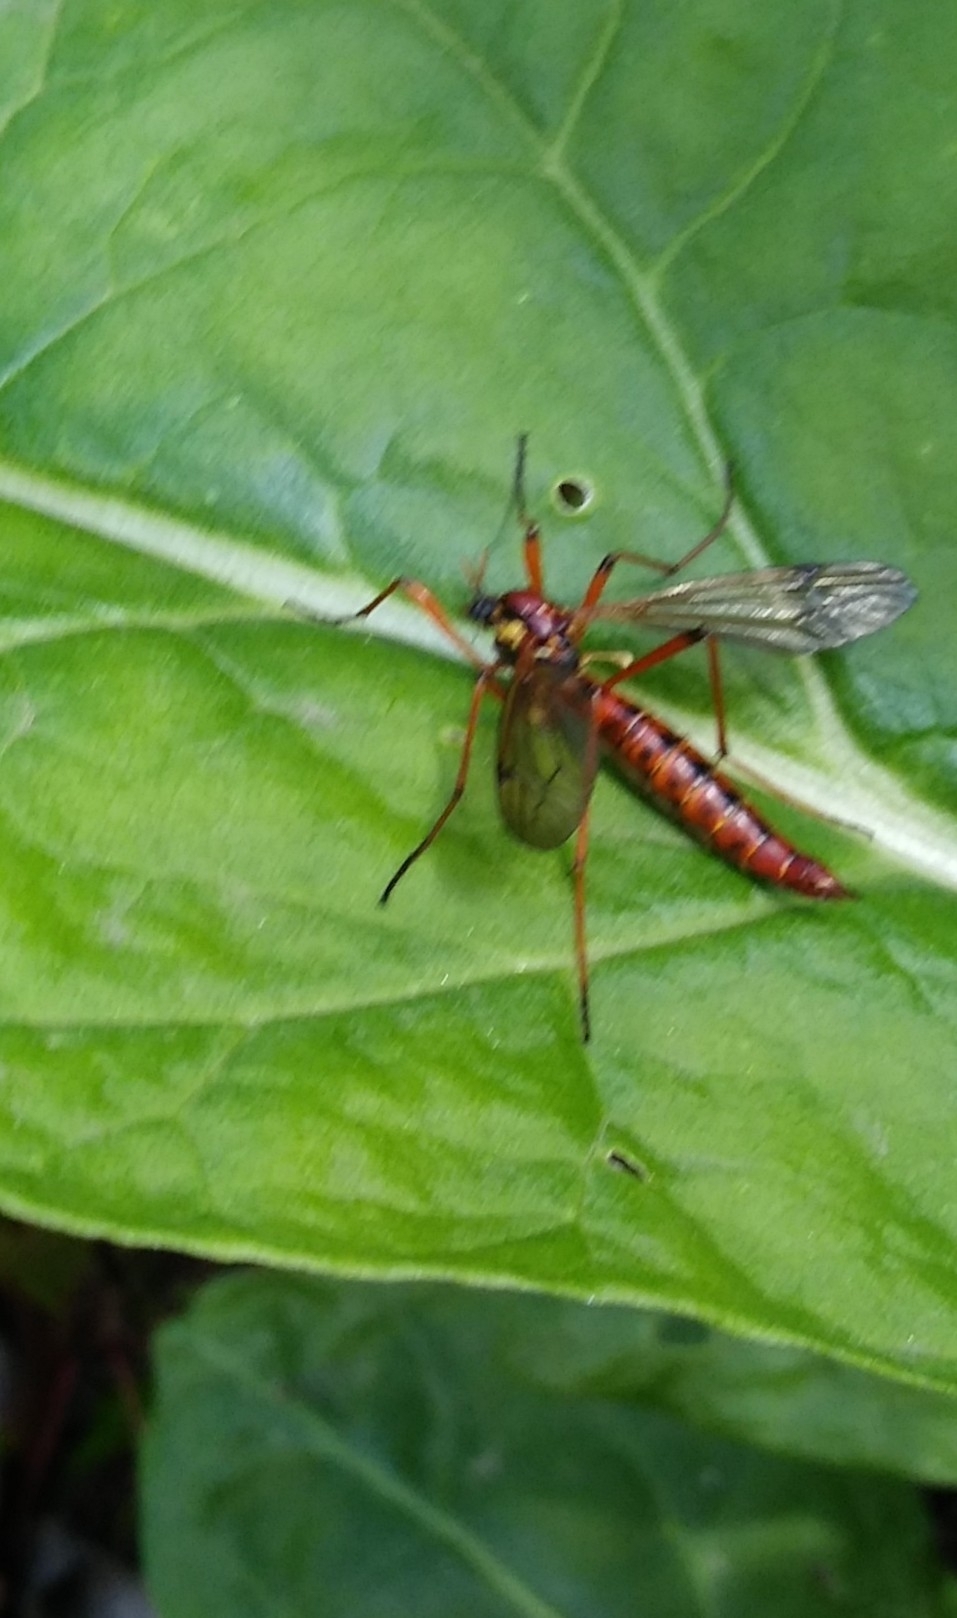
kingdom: Animalia
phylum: Arthropoda
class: Insecta
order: Diptera
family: Tipulidae
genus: Phoroctenia
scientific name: Phoroctenia vittata
